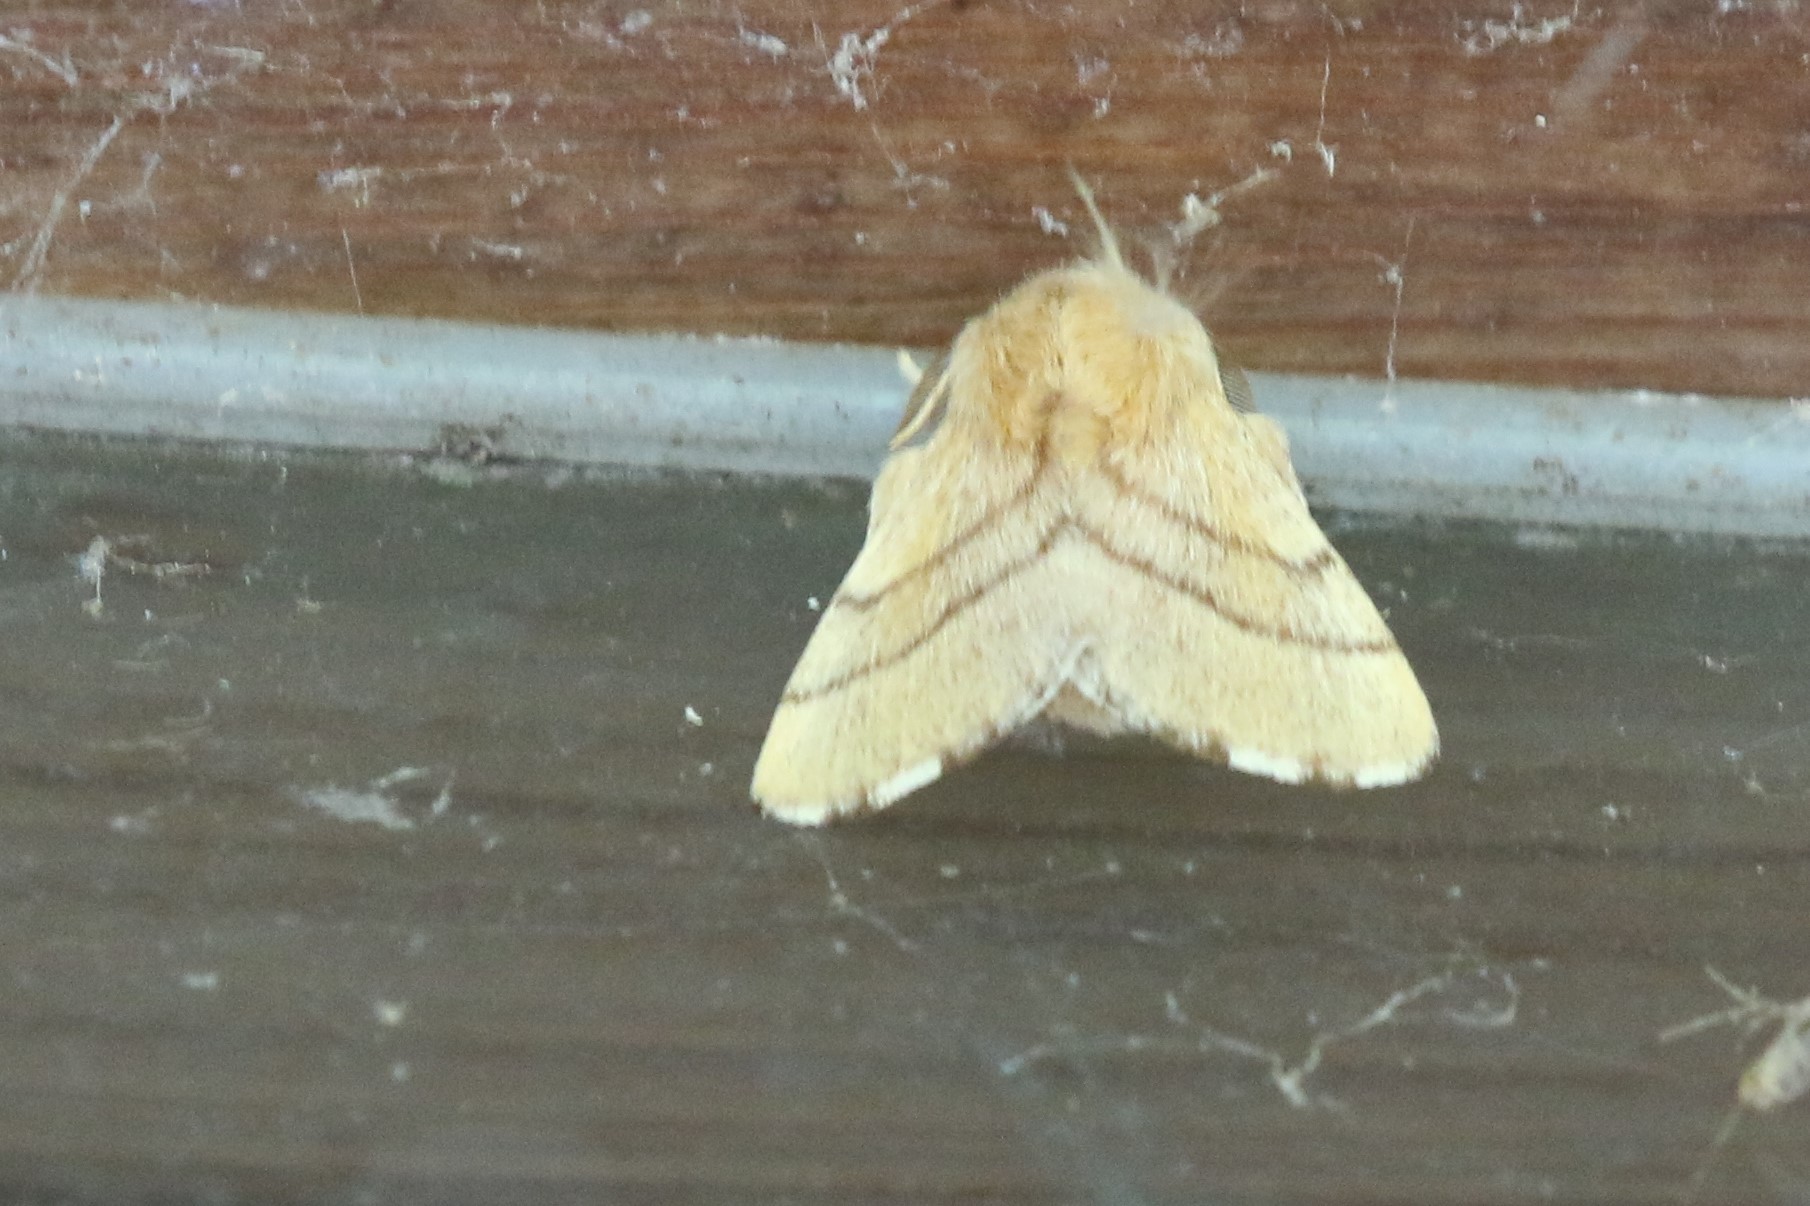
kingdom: Animalia
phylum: Arthropoda
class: Insecta
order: Lepidoptera
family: Lasiocampidae
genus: Malacosoma
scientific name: Malacosoma disstria
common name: Forest tent caterpillar
